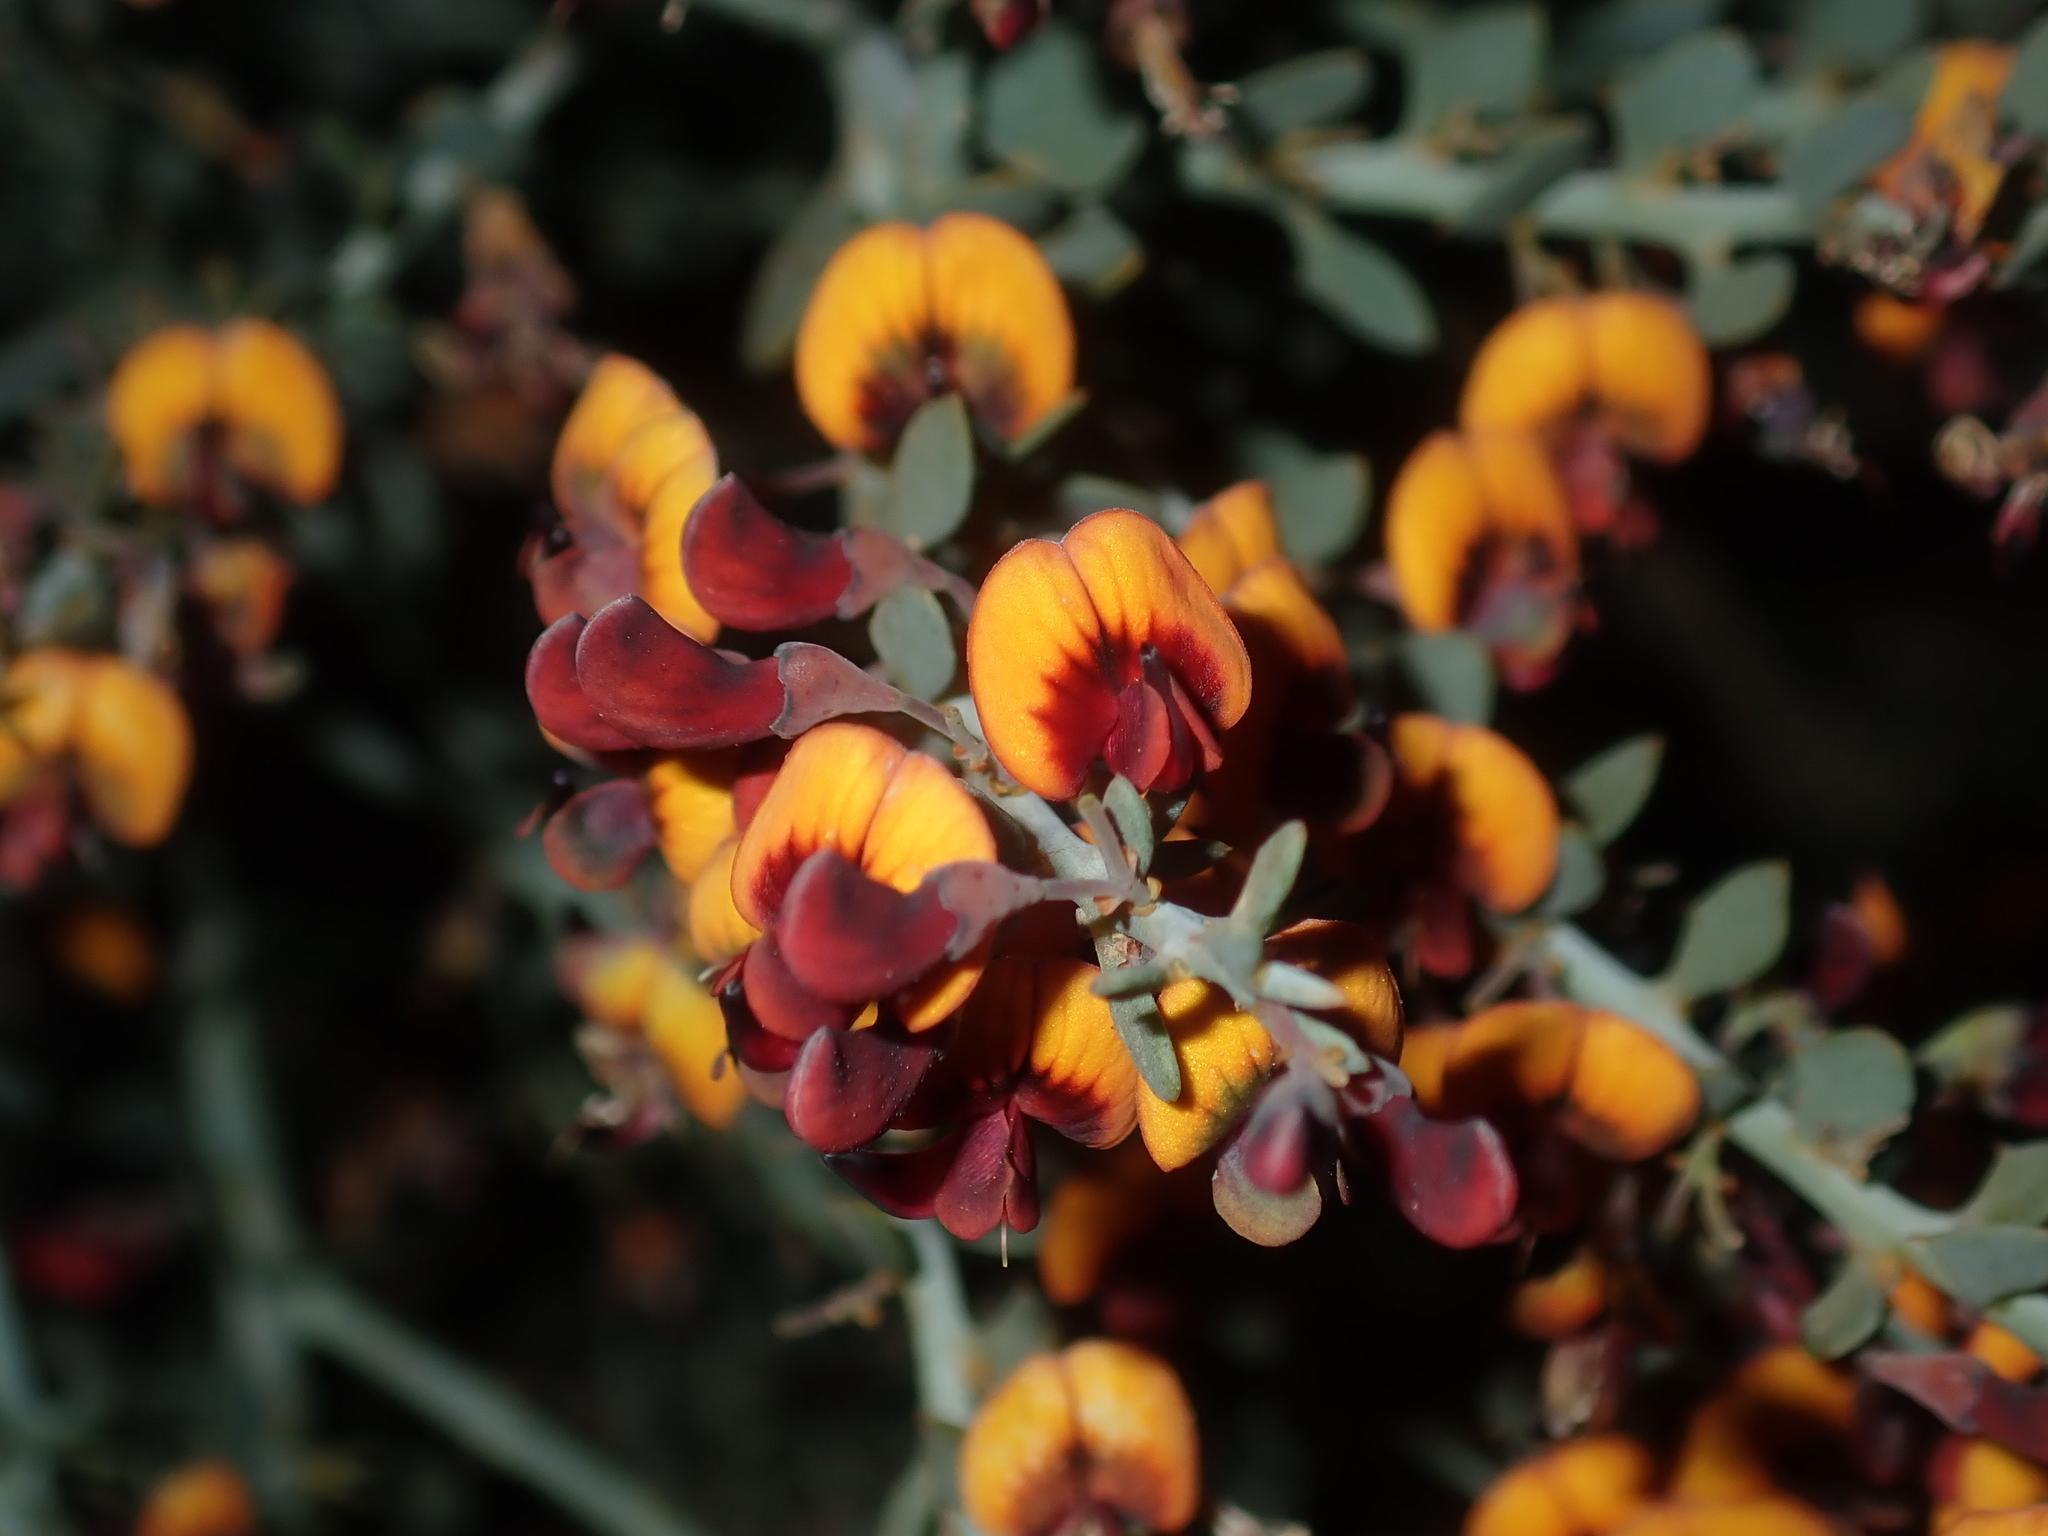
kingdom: Plantae
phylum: Tracheophyta
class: Magnoliopsida
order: Fabales
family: Fabaceae
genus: Daviesia
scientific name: Daviesia podophylla
